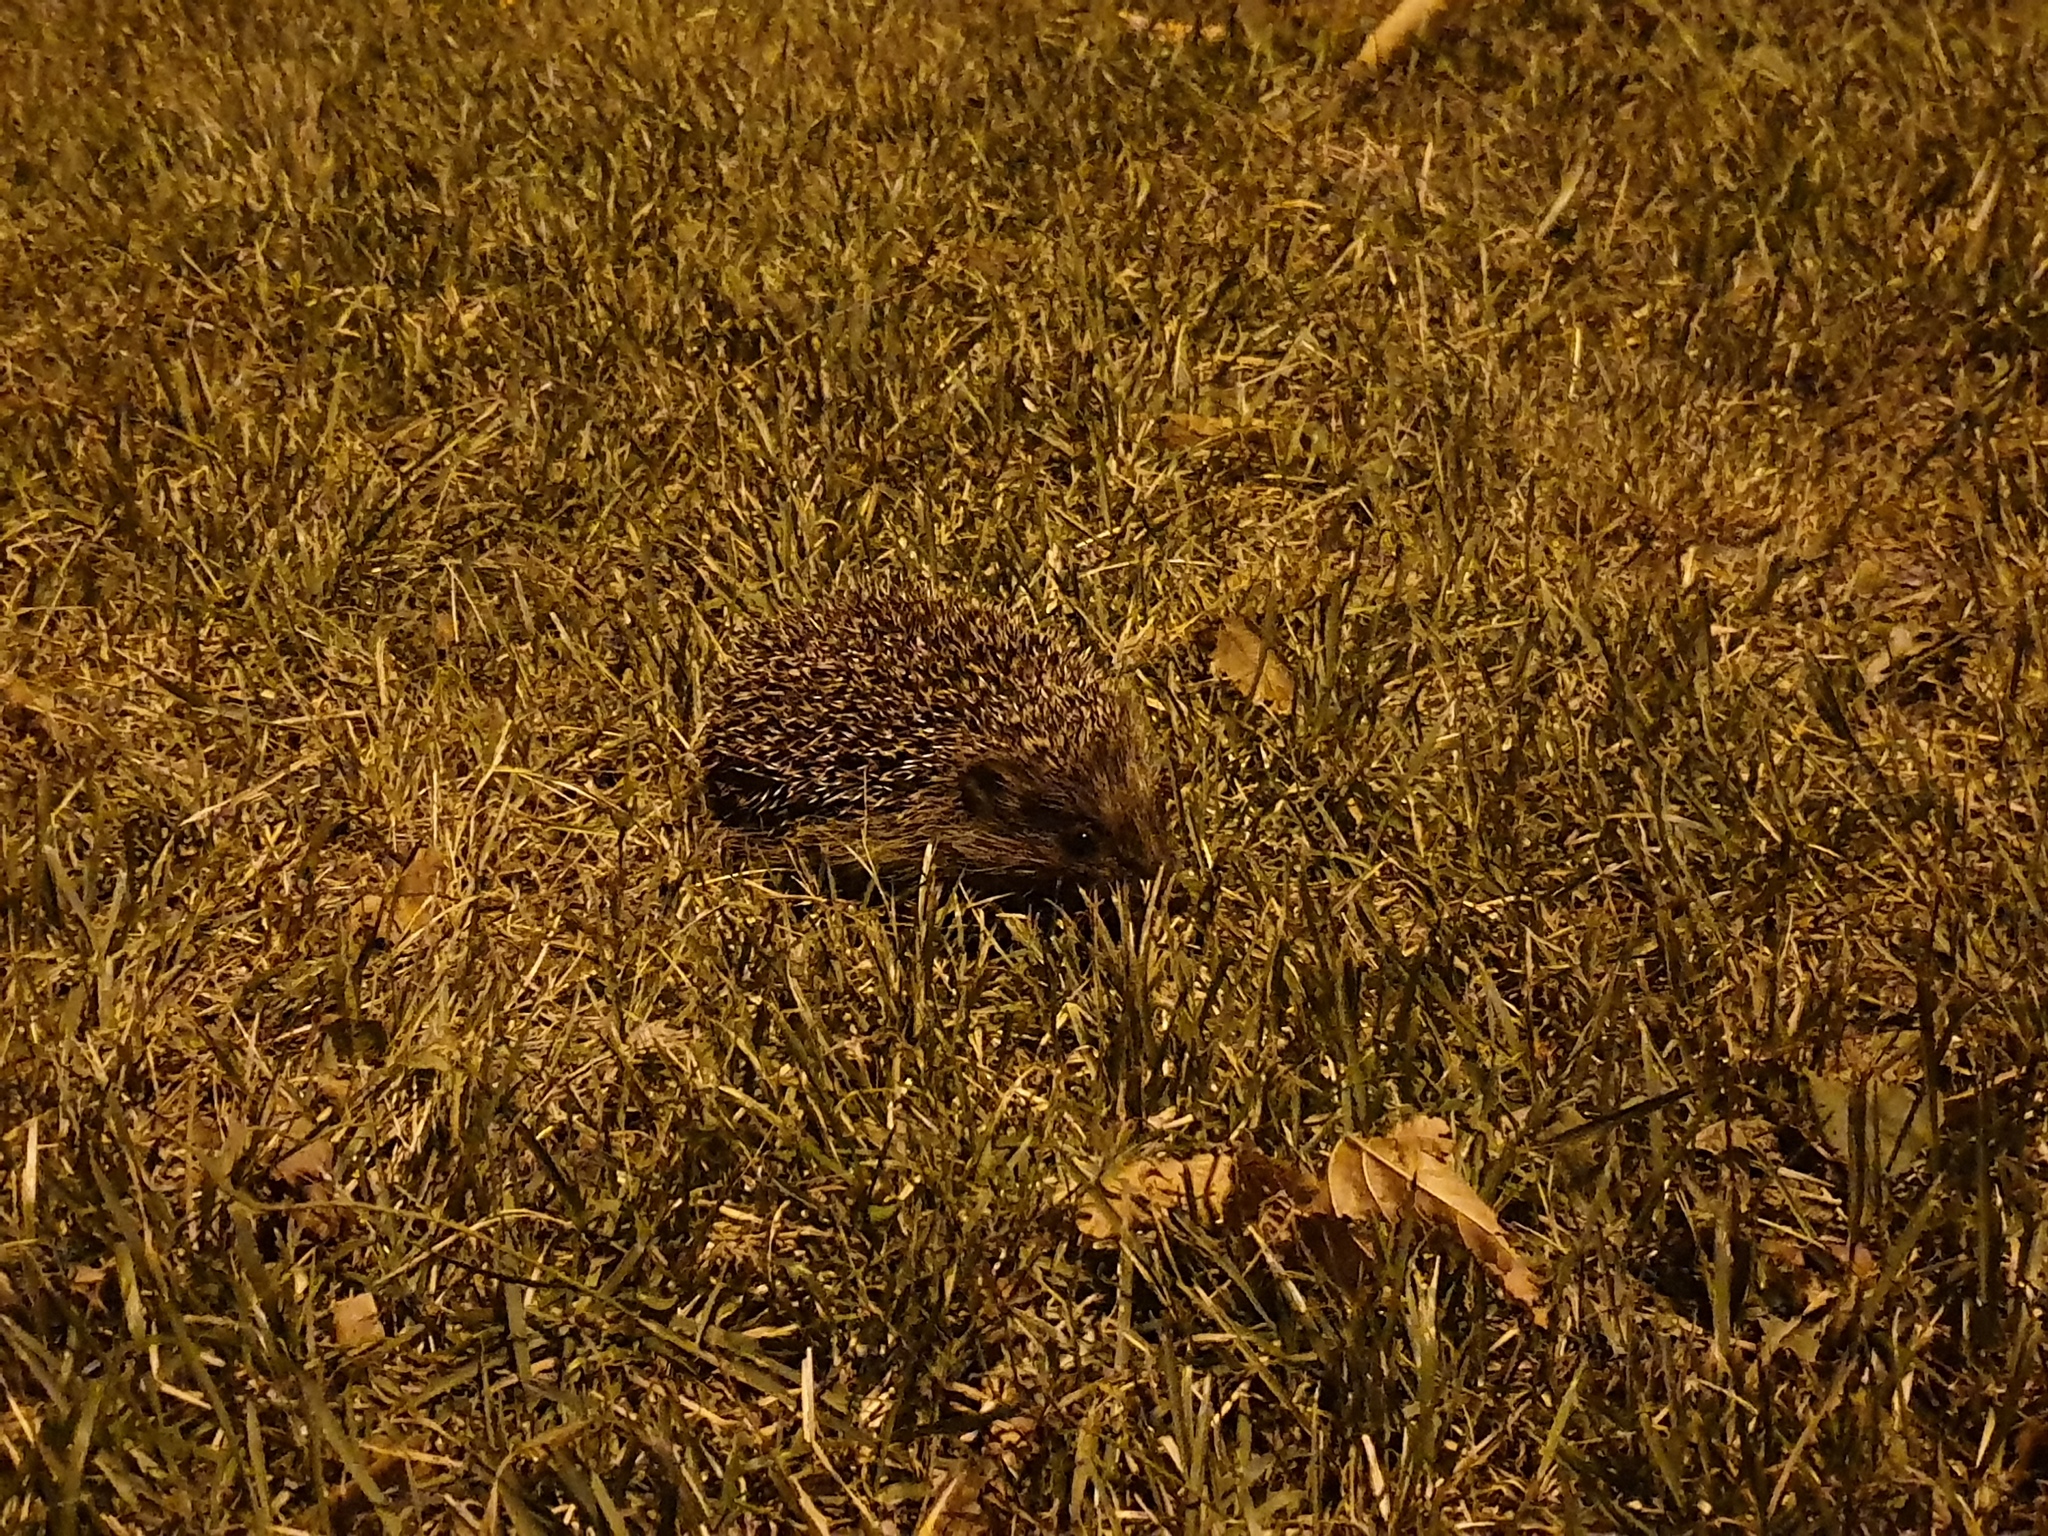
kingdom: Animalia
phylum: Chordata
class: Mammalia
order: Erinaceomorpha
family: Erinaceidae
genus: Erinaceus
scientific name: Erinaceus roumanicus
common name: Northern white-breasted hedgehog
